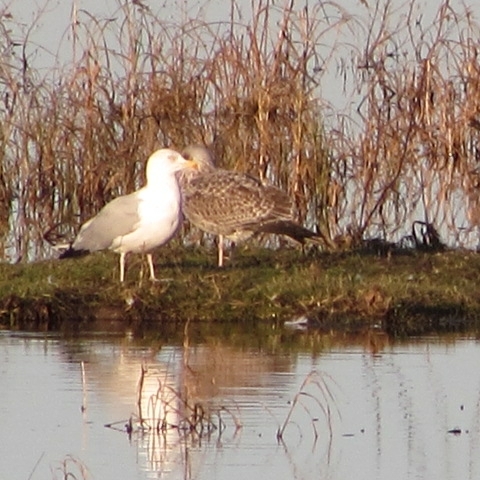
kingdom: Animalia
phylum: Chordata
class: Aves
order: Charadriiformes
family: Laridae
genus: Larus
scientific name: Larus argentatus
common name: Herring gull
